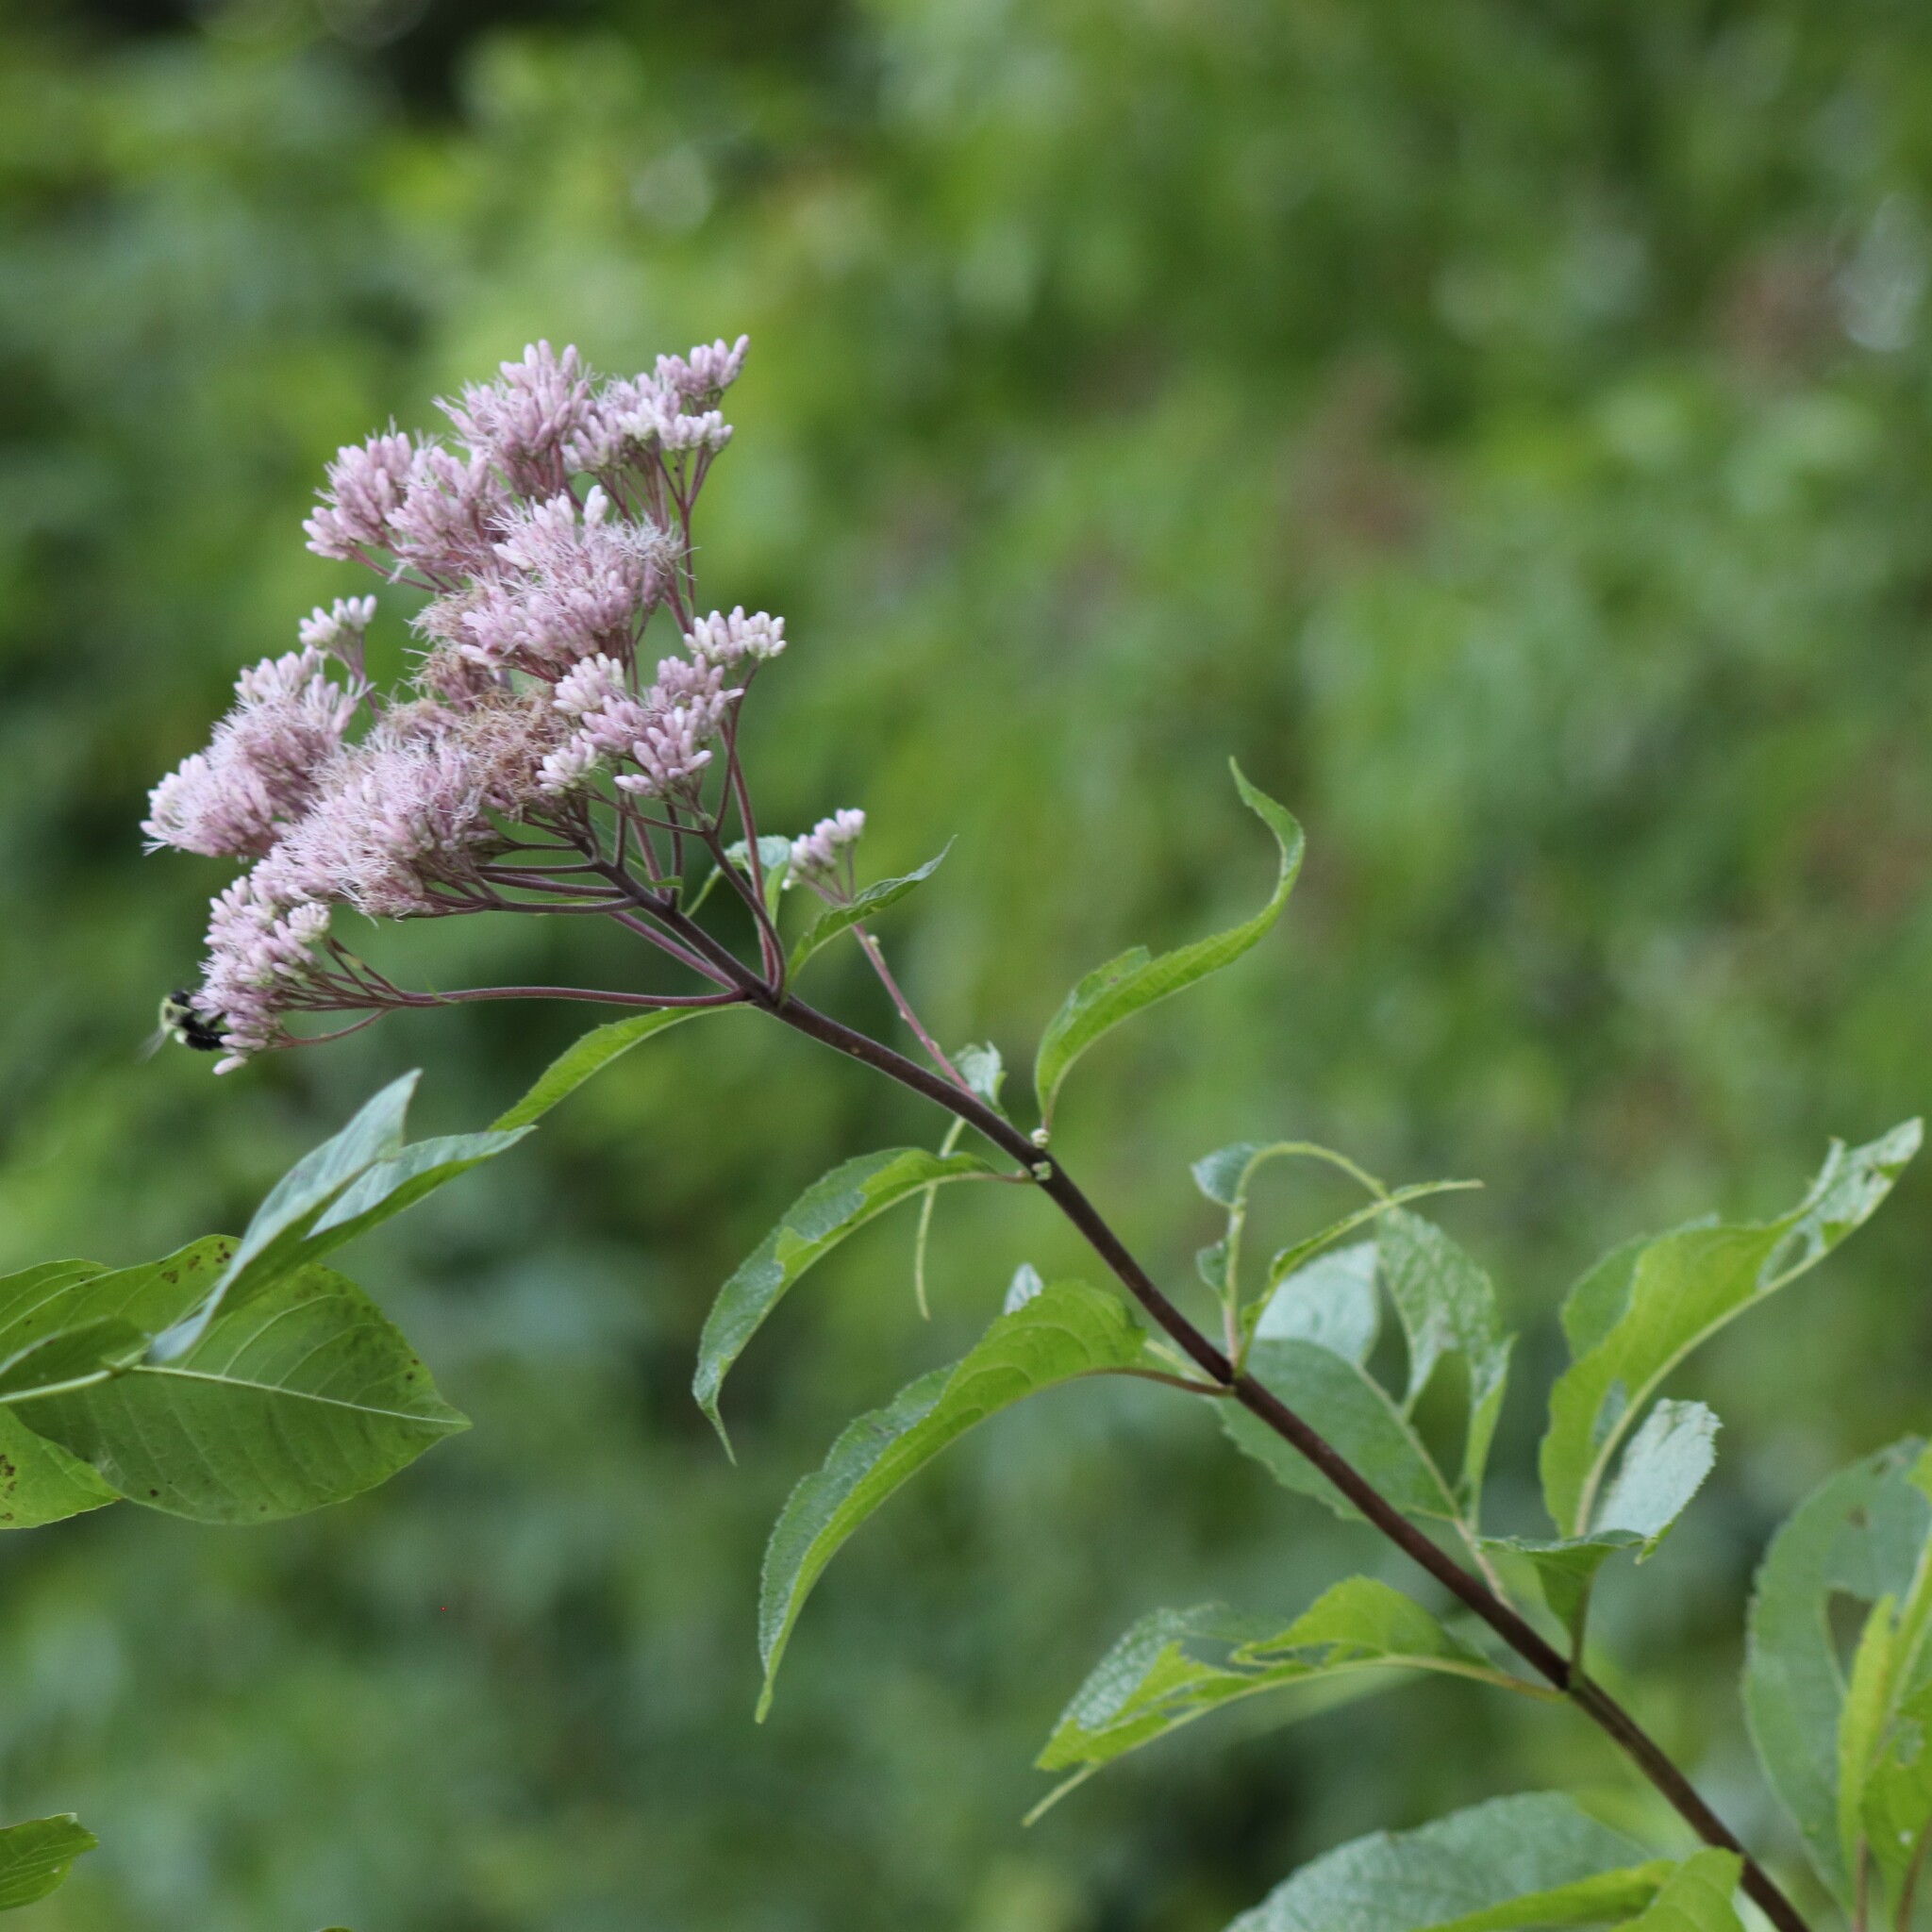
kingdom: Plantae
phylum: Tracheophyta
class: Magnoliopsida
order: Asterales
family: Asteraceae
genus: Eutrochium
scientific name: Eutrochium maculatum
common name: Spotted joe pye weed
